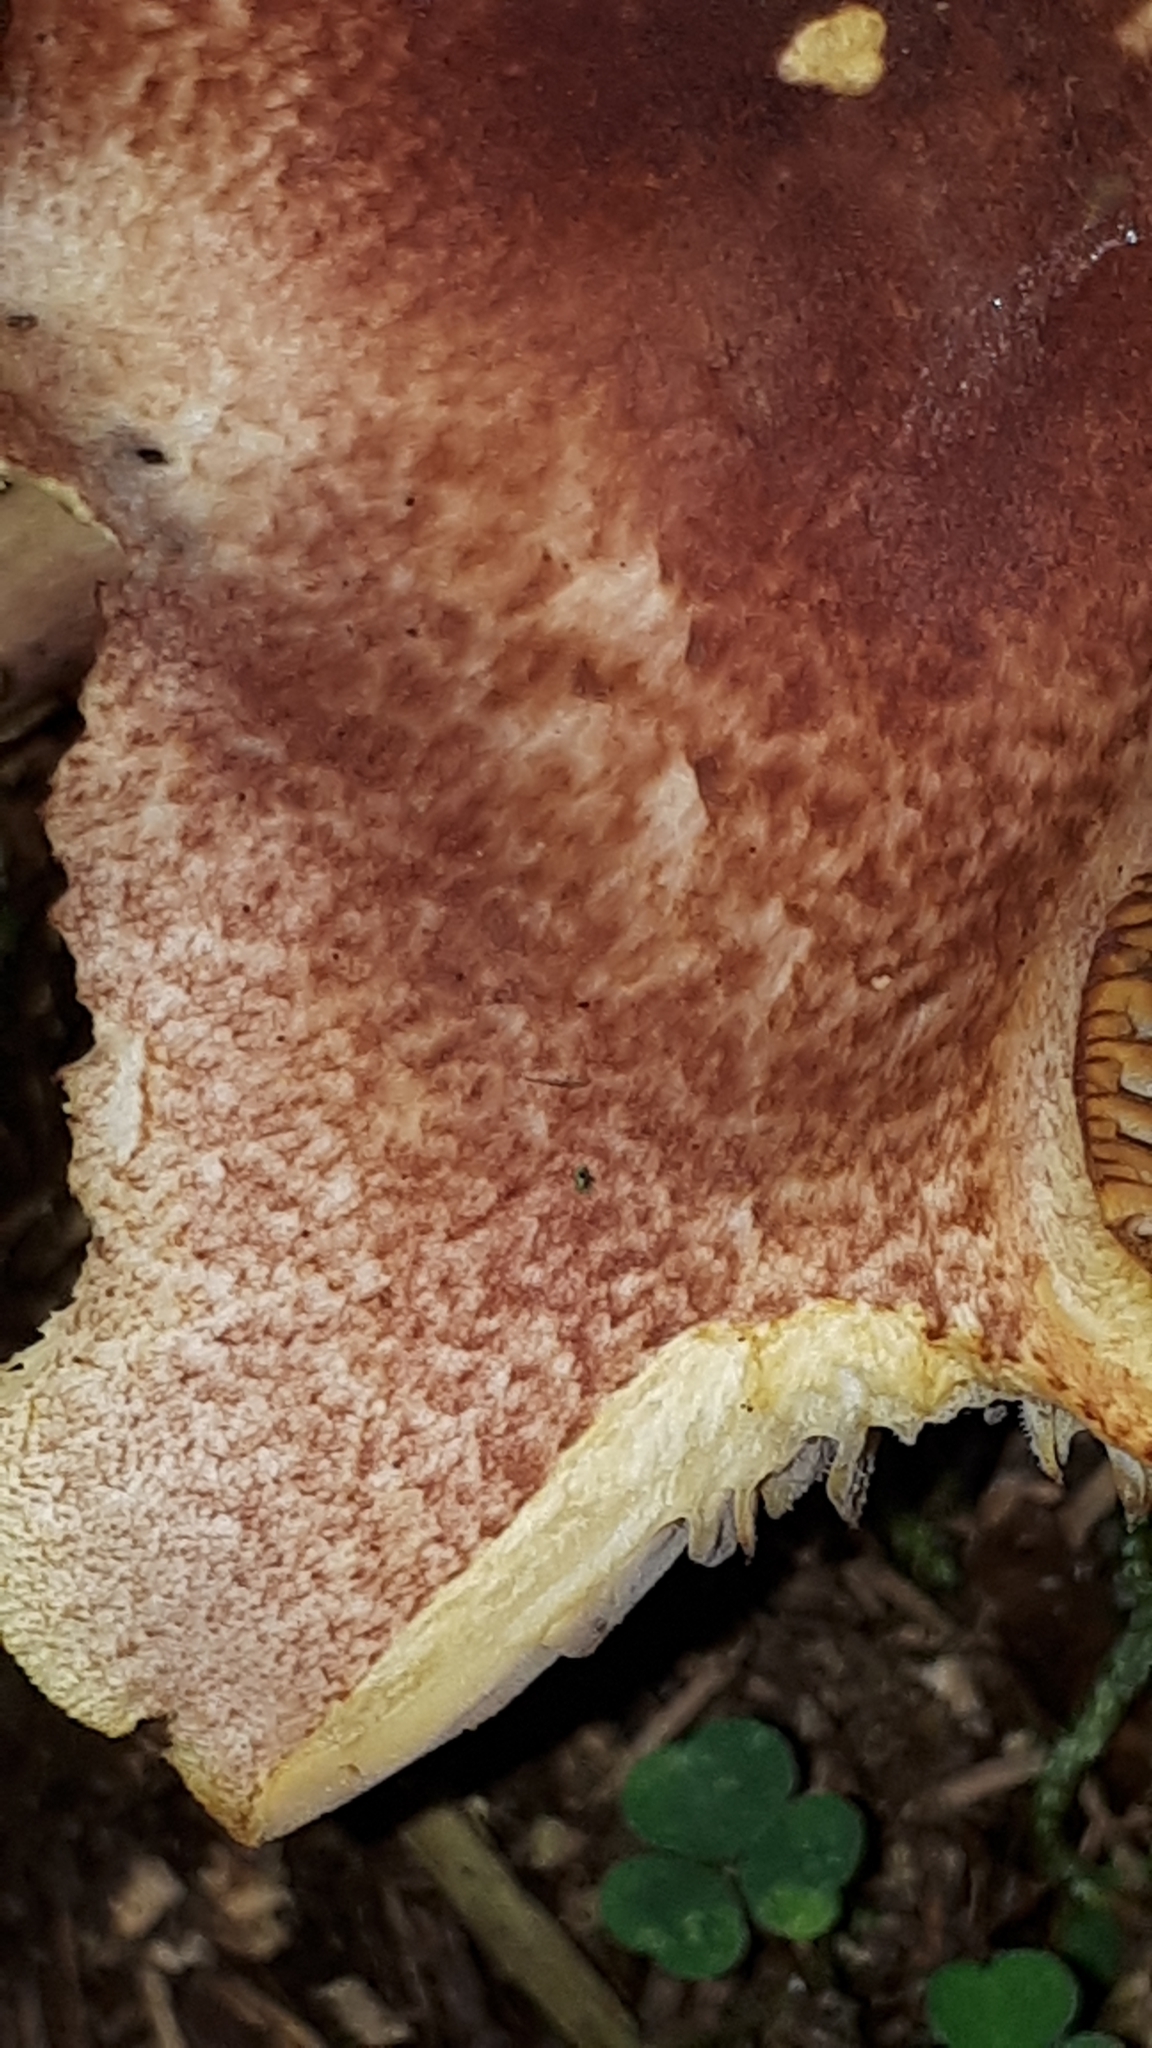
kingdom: Fungi
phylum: Basidiomycota
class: Agaricomycetes
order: Agaricales
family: Tricholomataceae
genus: Tricholomopsis
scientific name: Tricholomopsis rutilans
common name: Plums and custard
